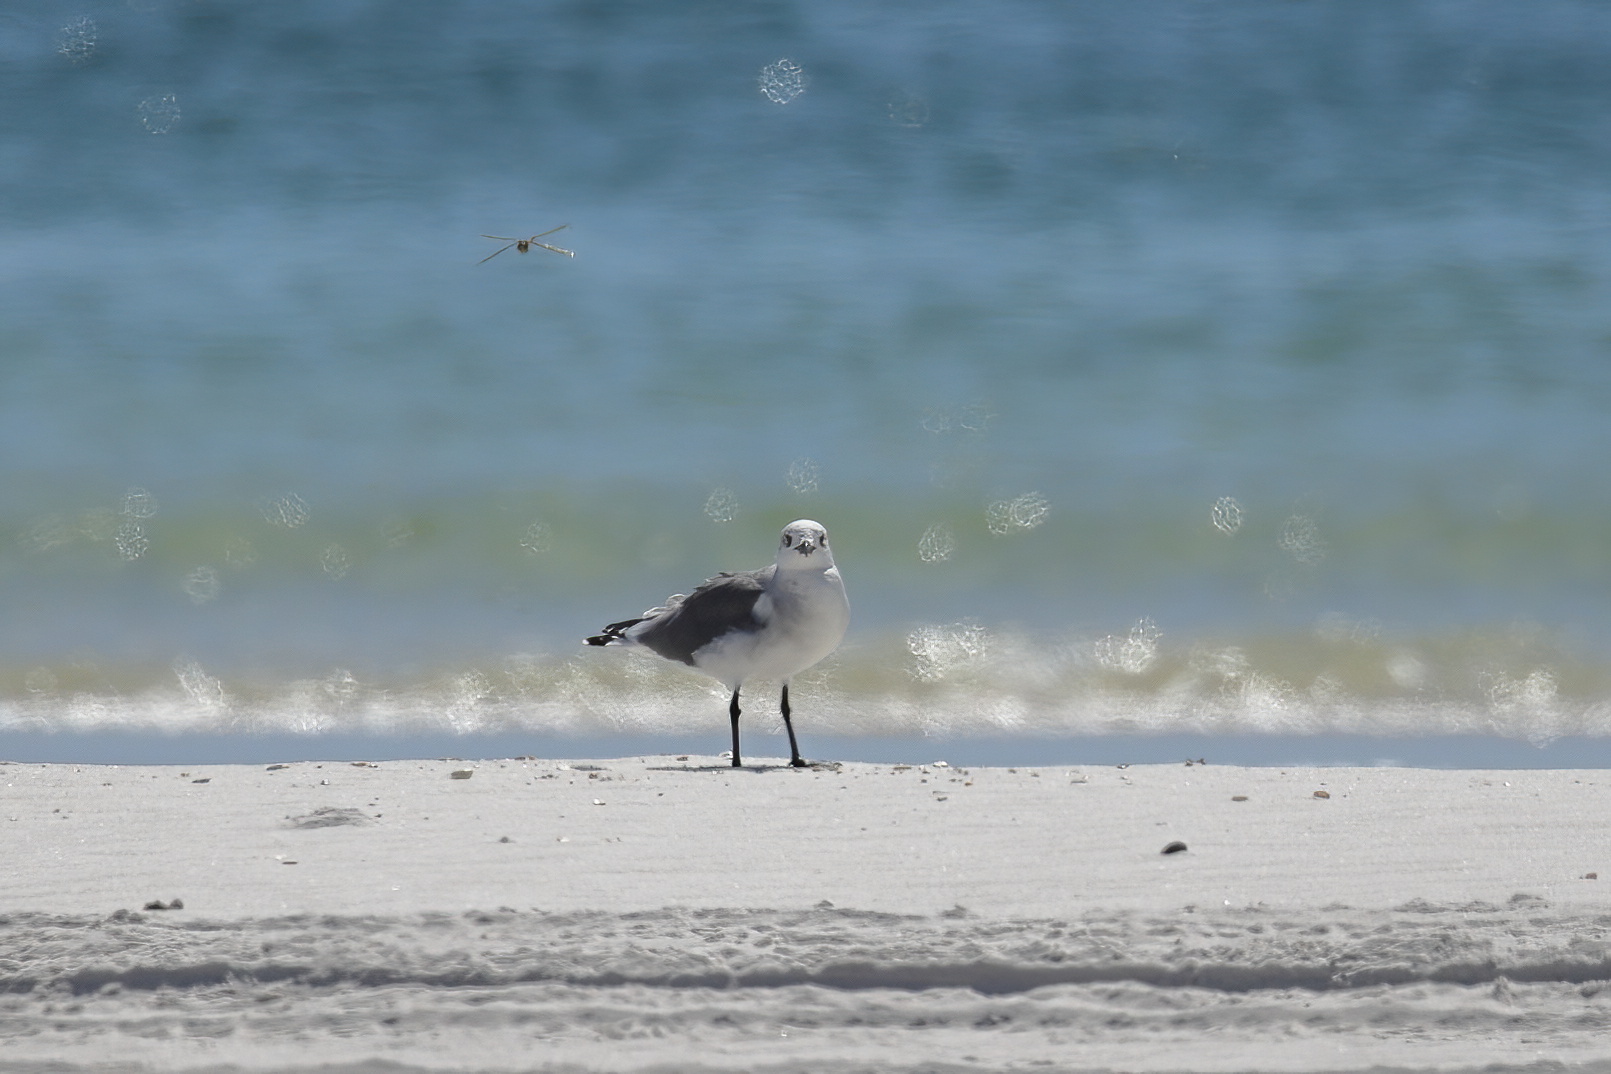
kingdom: Animalia
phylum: Chordata
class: Aves
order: Charadriiformes
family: Laridae
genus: Leucophaeus
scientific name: Leucophaeus atricilla
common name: Laughing gull
